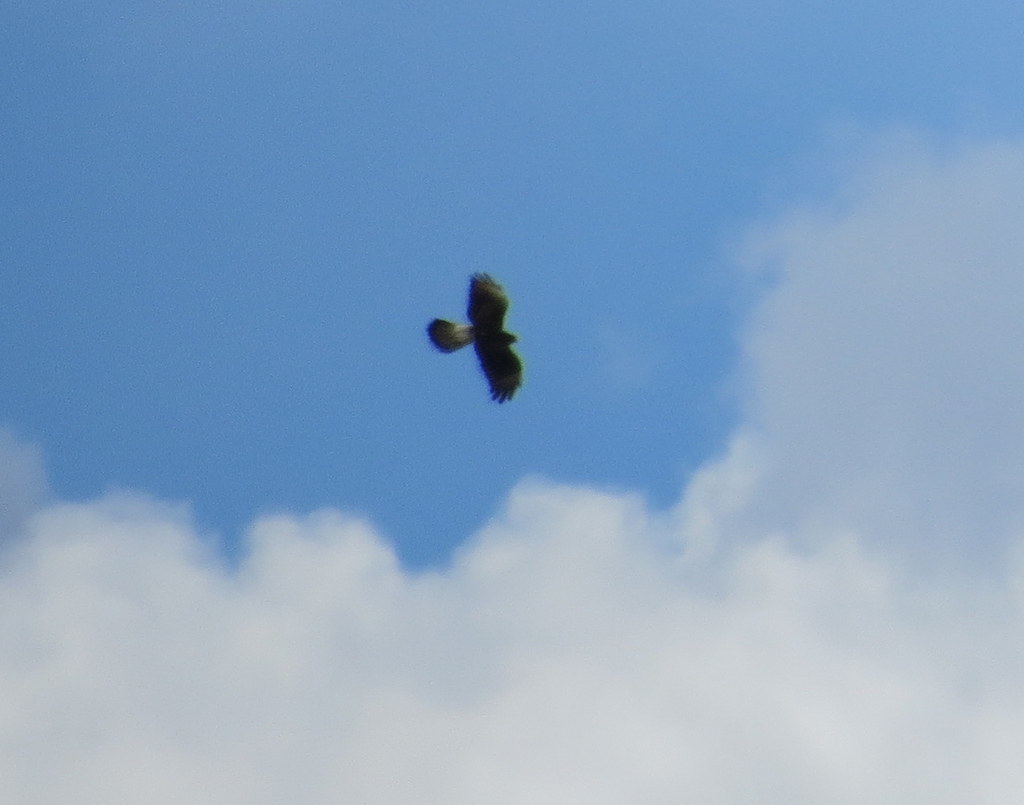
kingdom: Animalia
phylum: Chordata
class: Aves
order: Accipitriformes
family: Accipitridae
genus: Rostrhamus
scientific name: Rostrhamus sociabilis
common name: Snail kite
